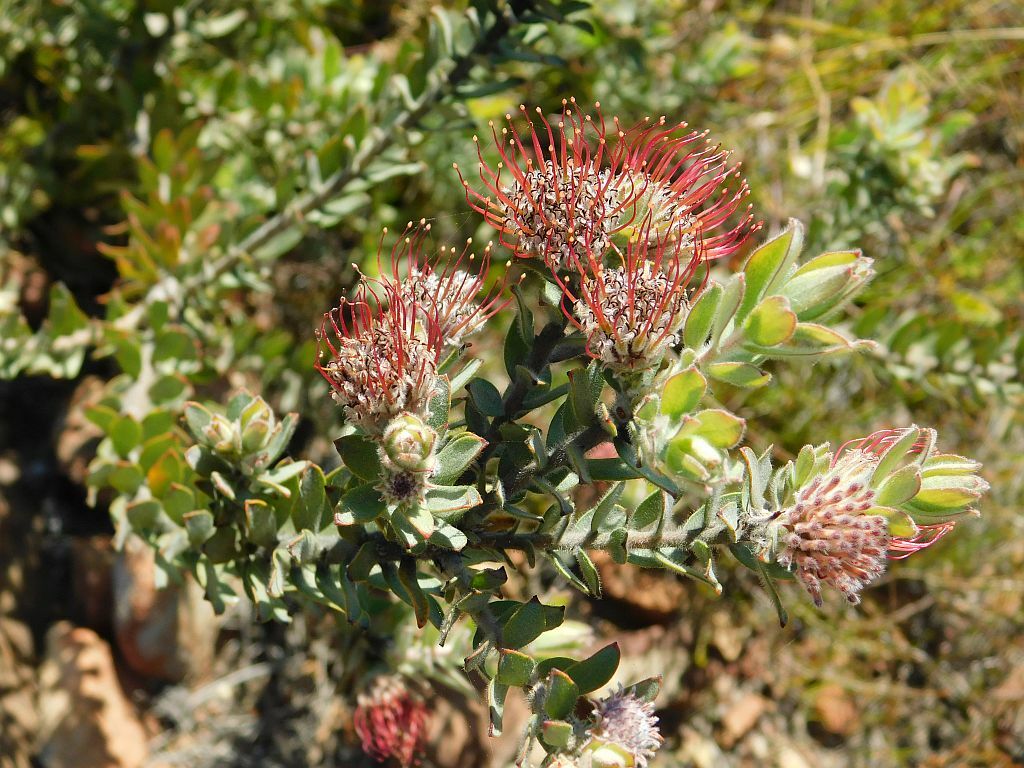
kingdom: Plantae
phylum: Tracheophyta
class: Magnoliopsida
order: Proteales
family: Proteaceae
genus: Leucospermum
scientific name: Leucospermum calligerum
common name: Arid pincushion
